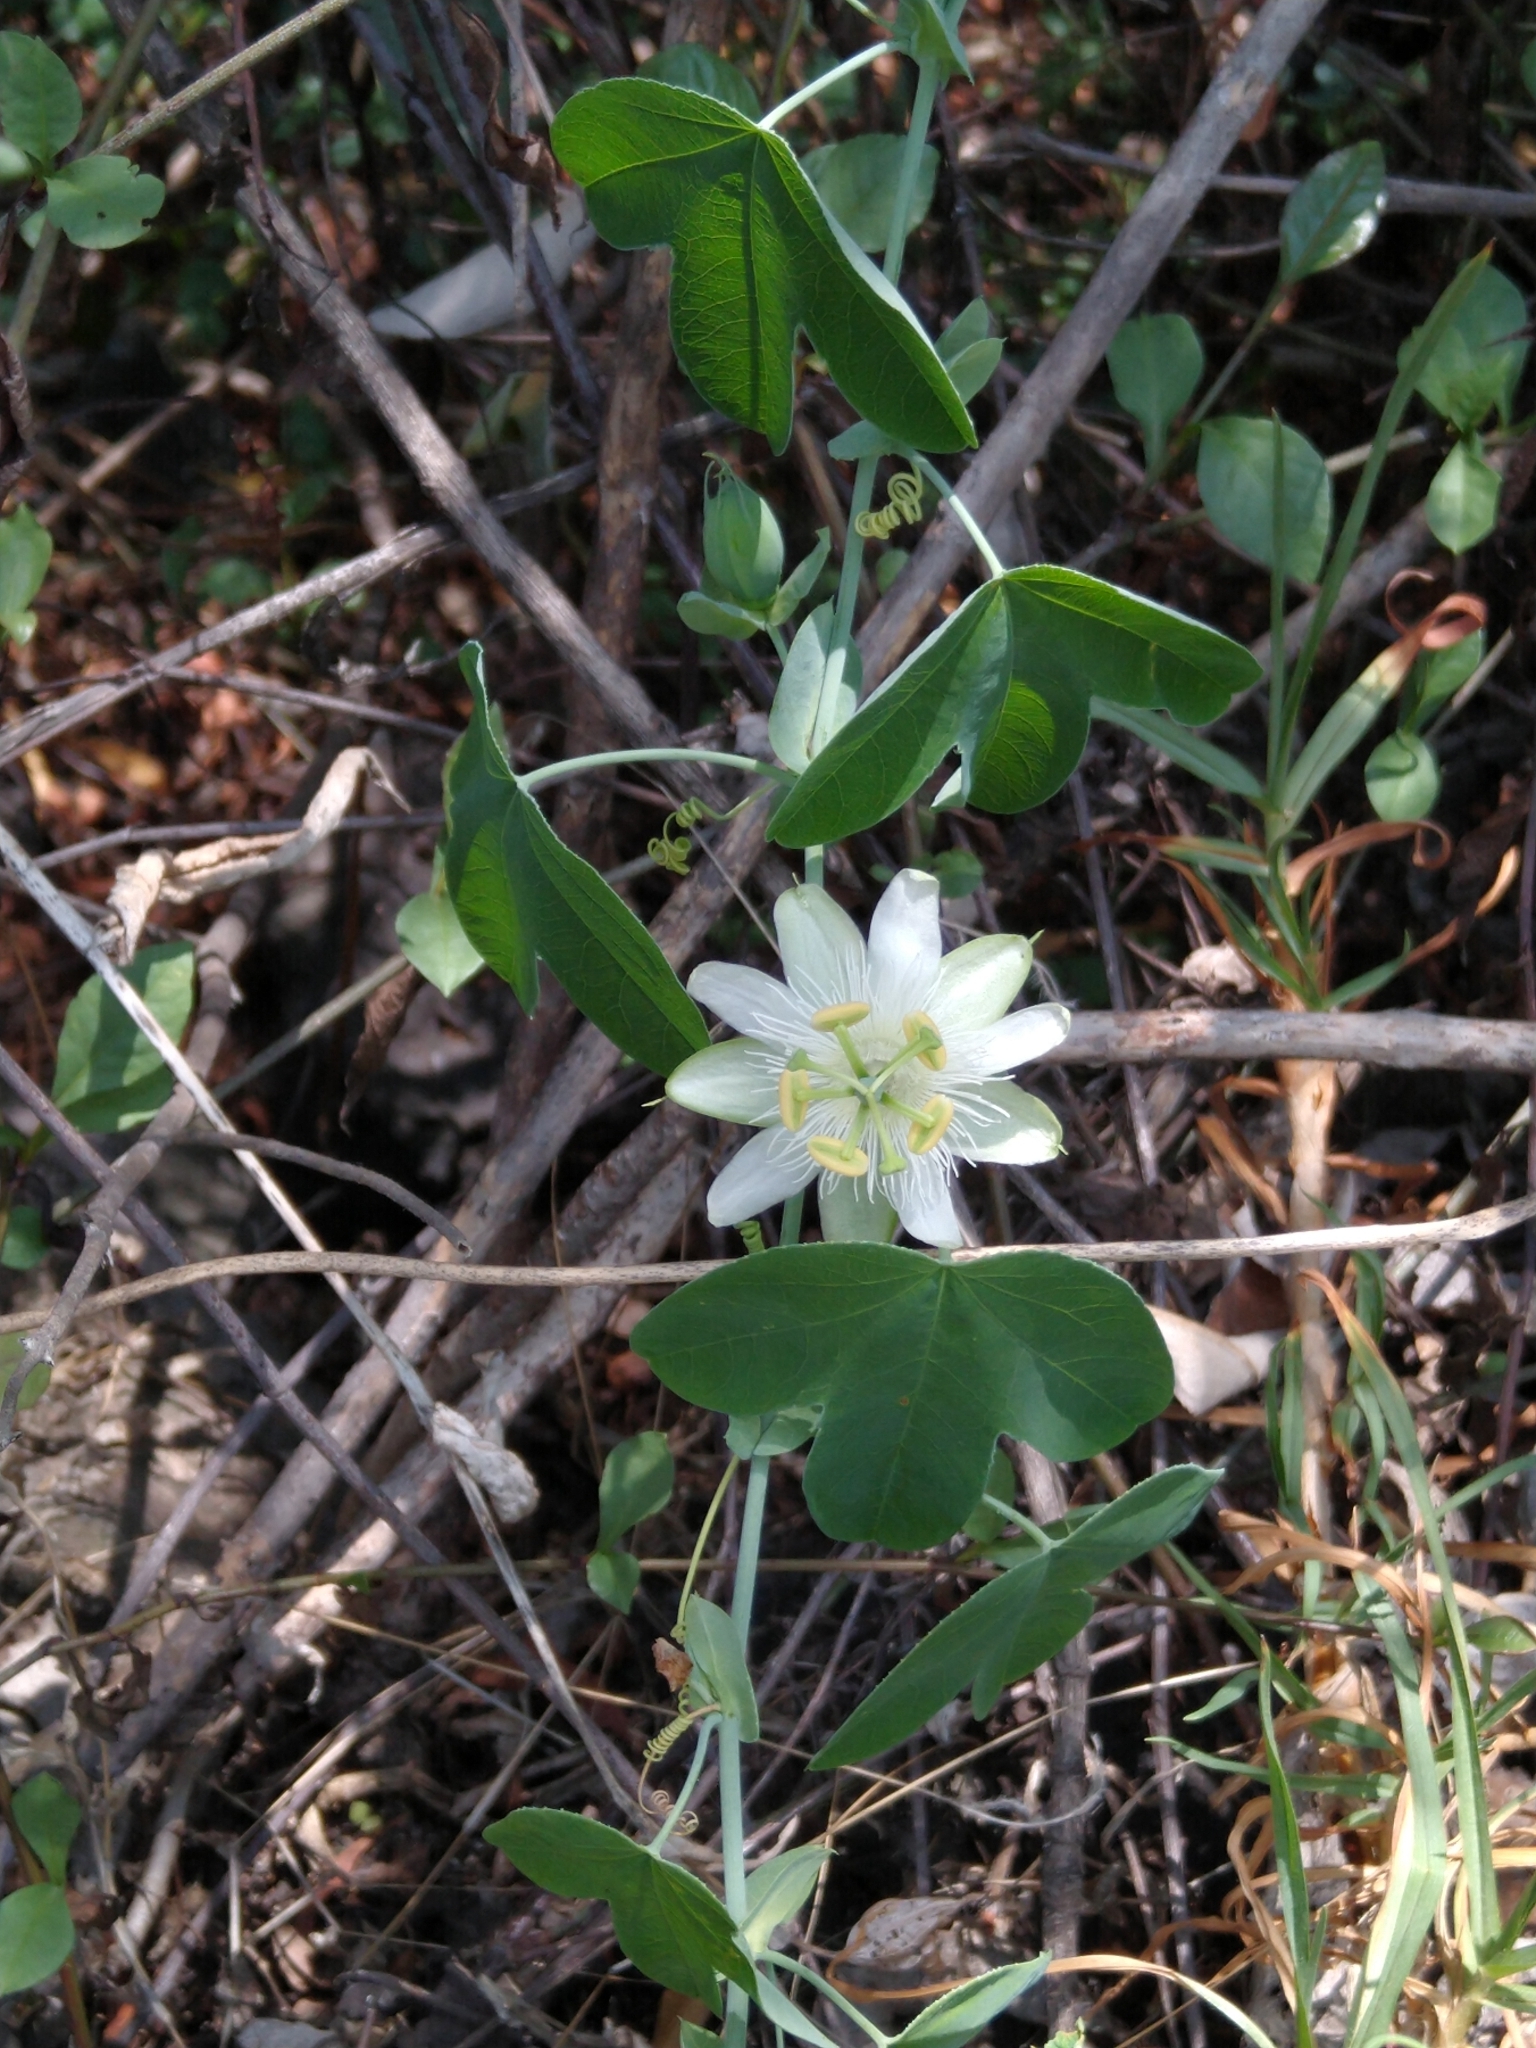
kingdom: Plantae
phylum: Tracheophyta
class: Magnoliopsida
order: Malpighiales
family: Passifloraceae
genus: Passiflora
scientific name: Passiflora subpeltata
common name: White passionflower
